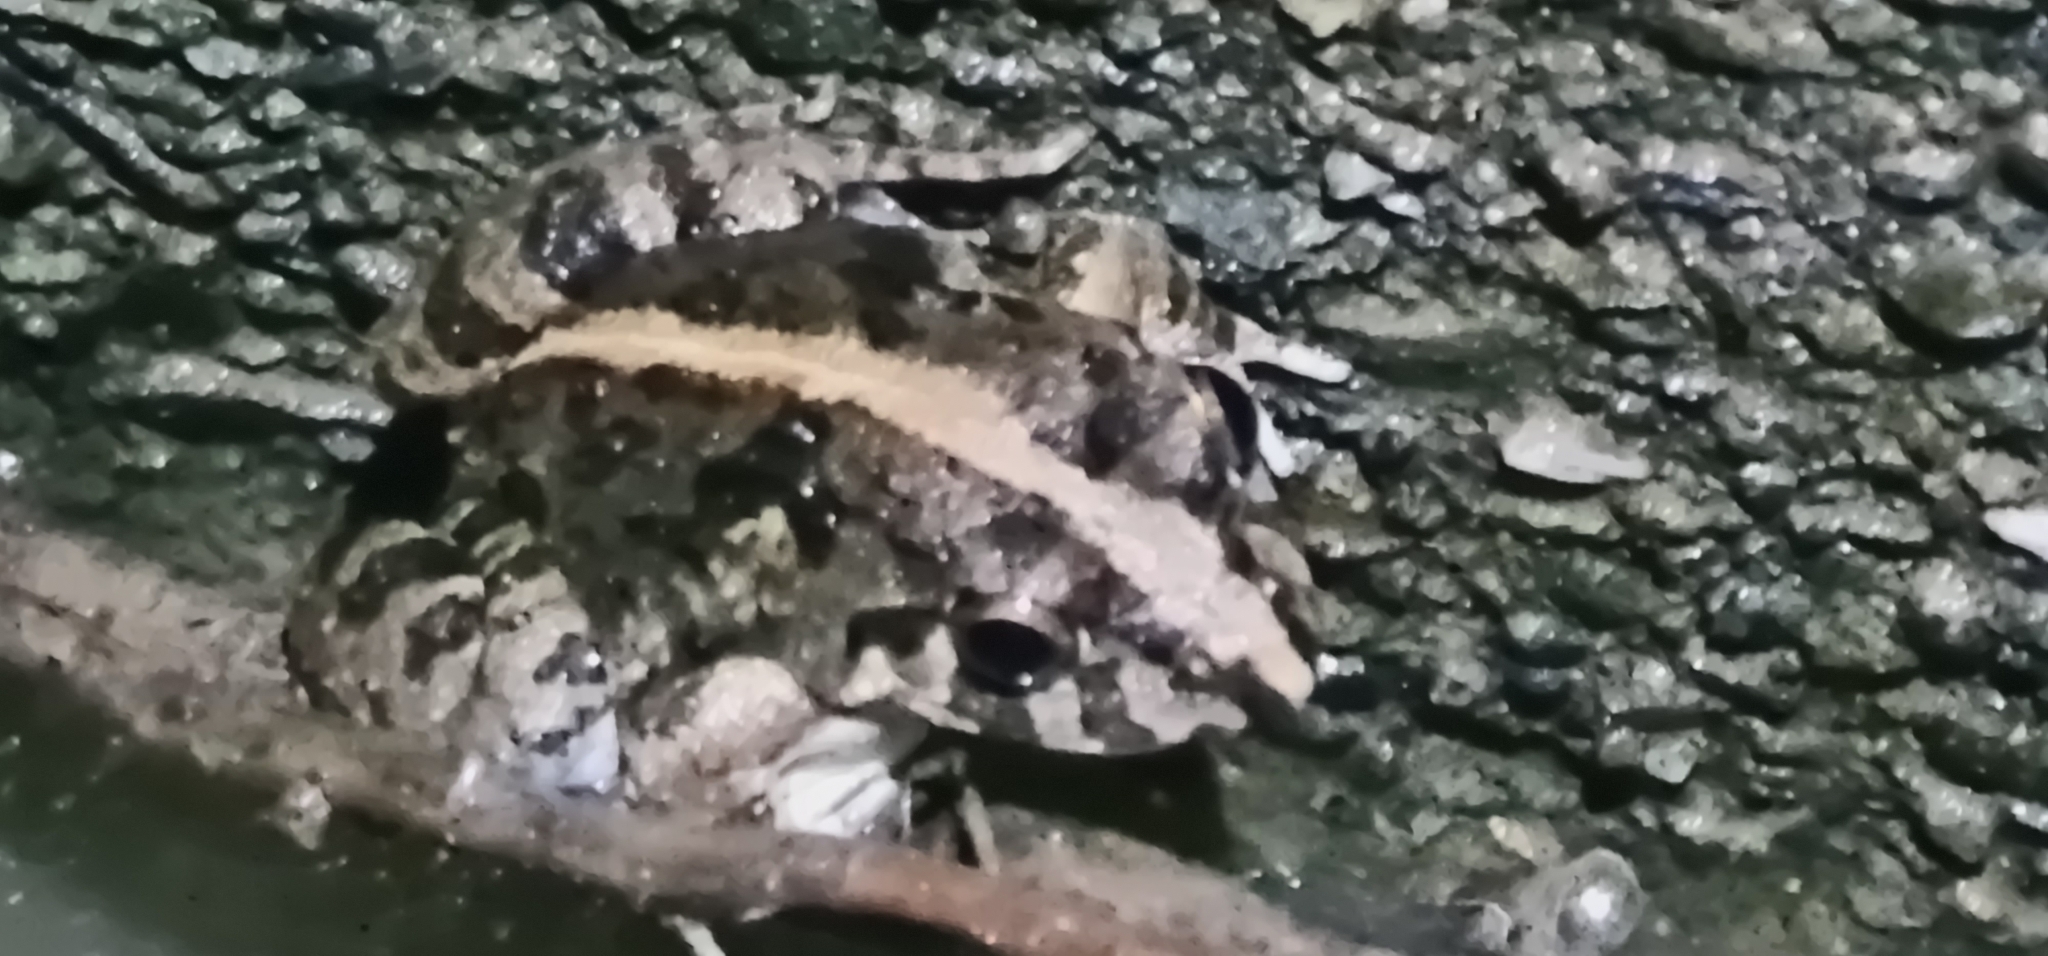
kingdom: Animalia
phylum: Chordata
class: Amphibia
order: Anura
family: Dicroglossidae
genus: Fejervarya
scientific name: Fejervarya limnocharis
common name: Asian grass frog/common pond frog/field frog/grass frog/indian rice frog
